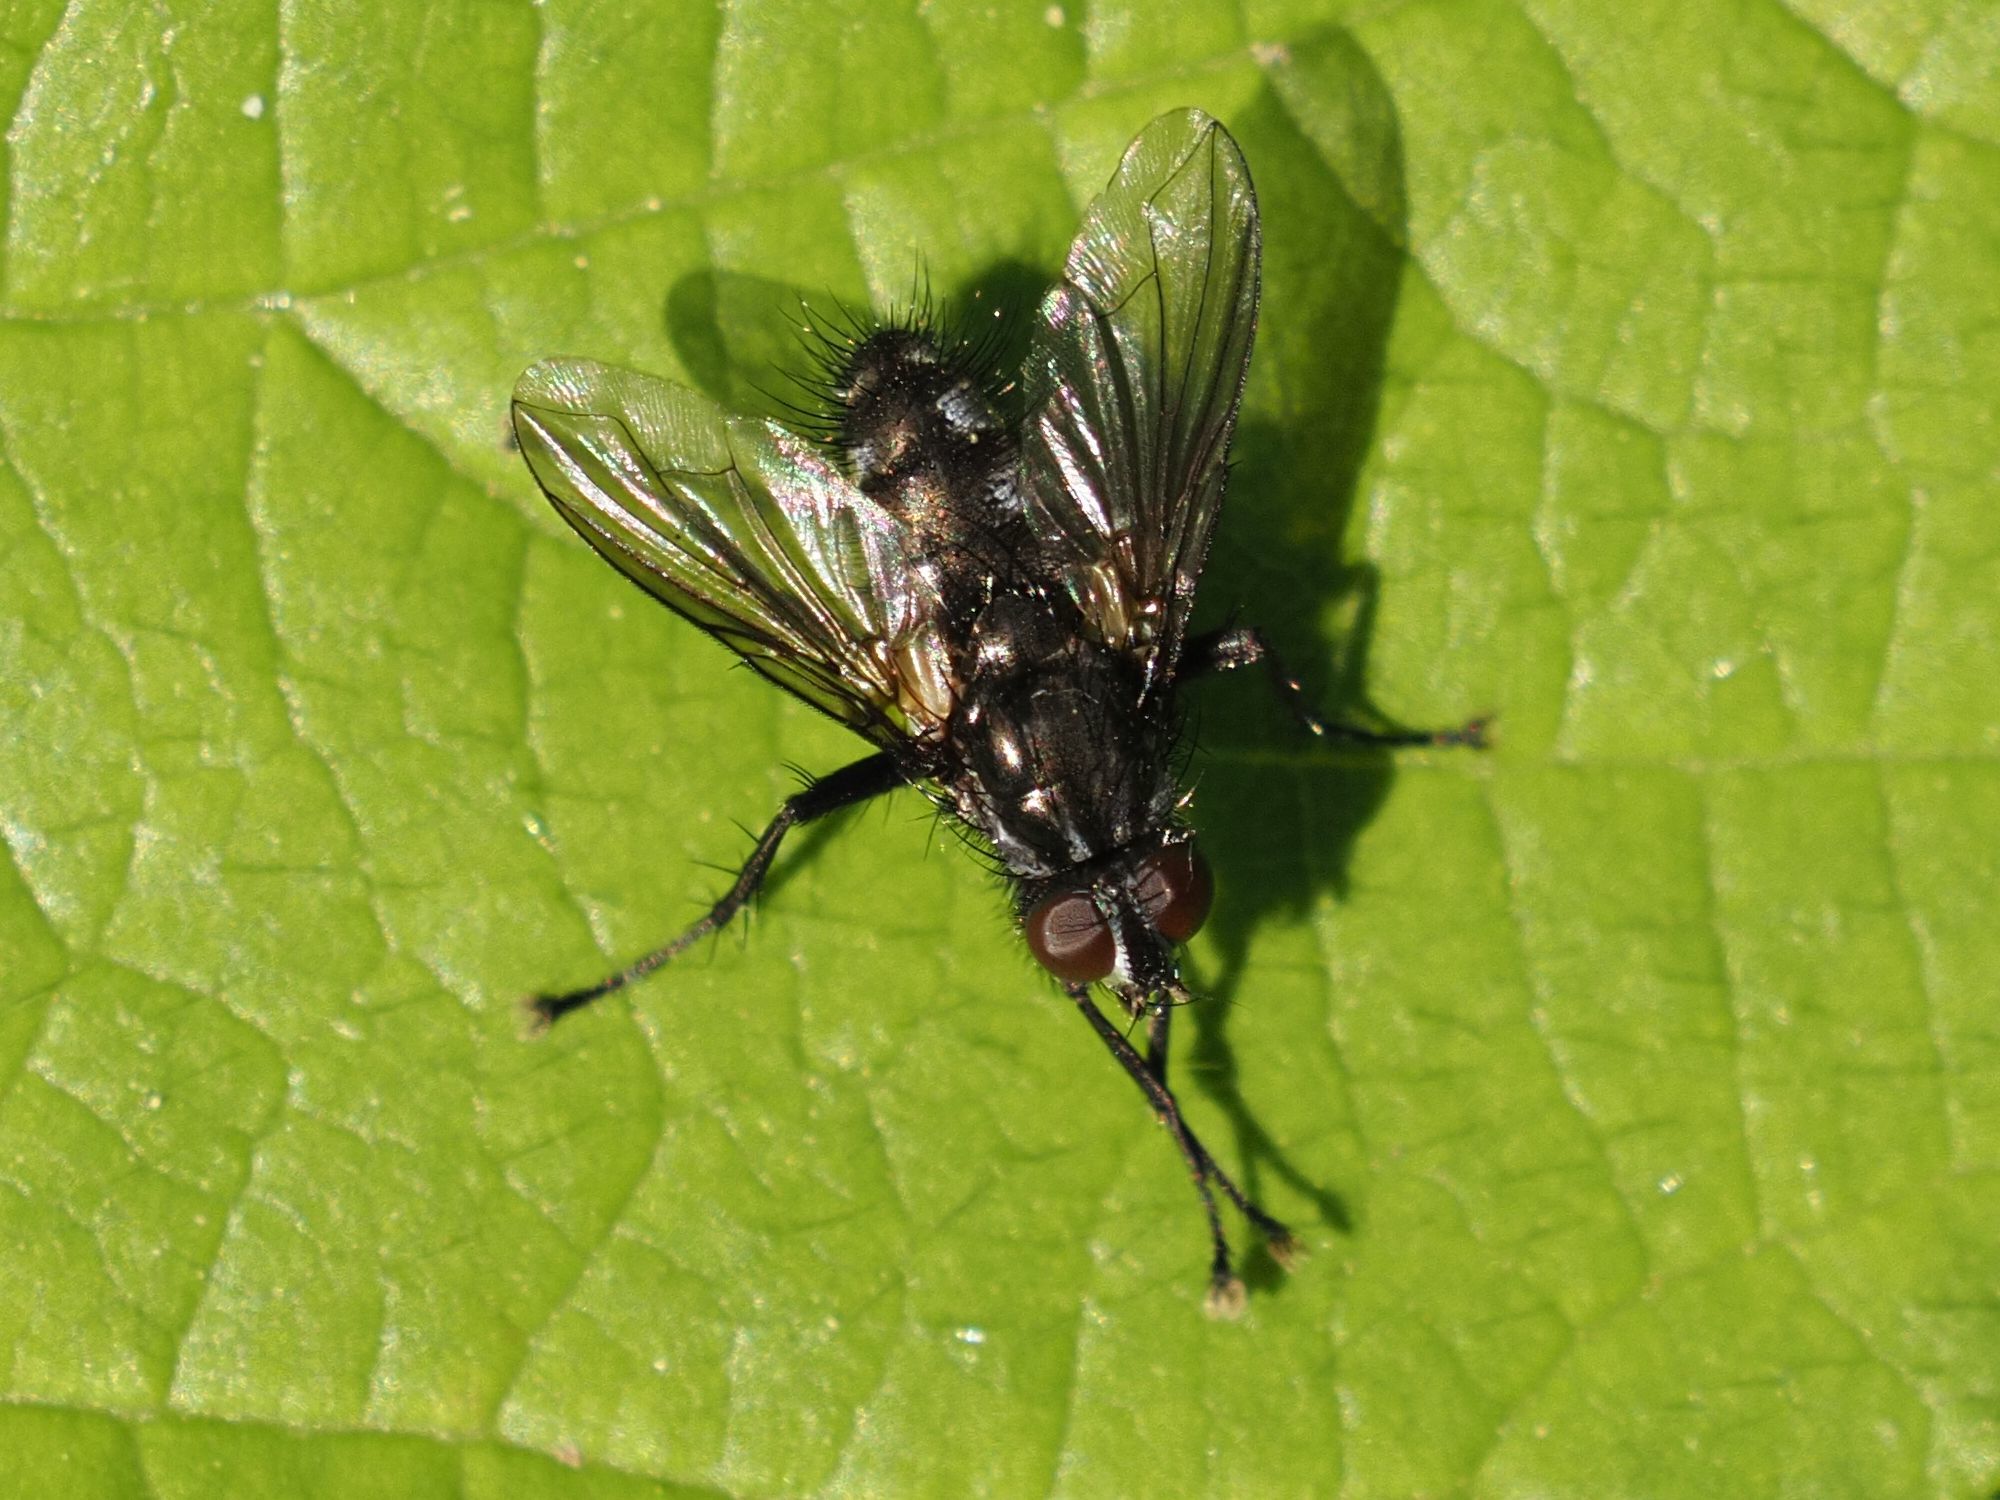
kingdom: Animalia
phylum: Arthropoda
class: Insecta
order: Diptera
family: Calliphoridae
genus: Rhinomorinia
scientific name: Rhinomorinia sarcophagina
